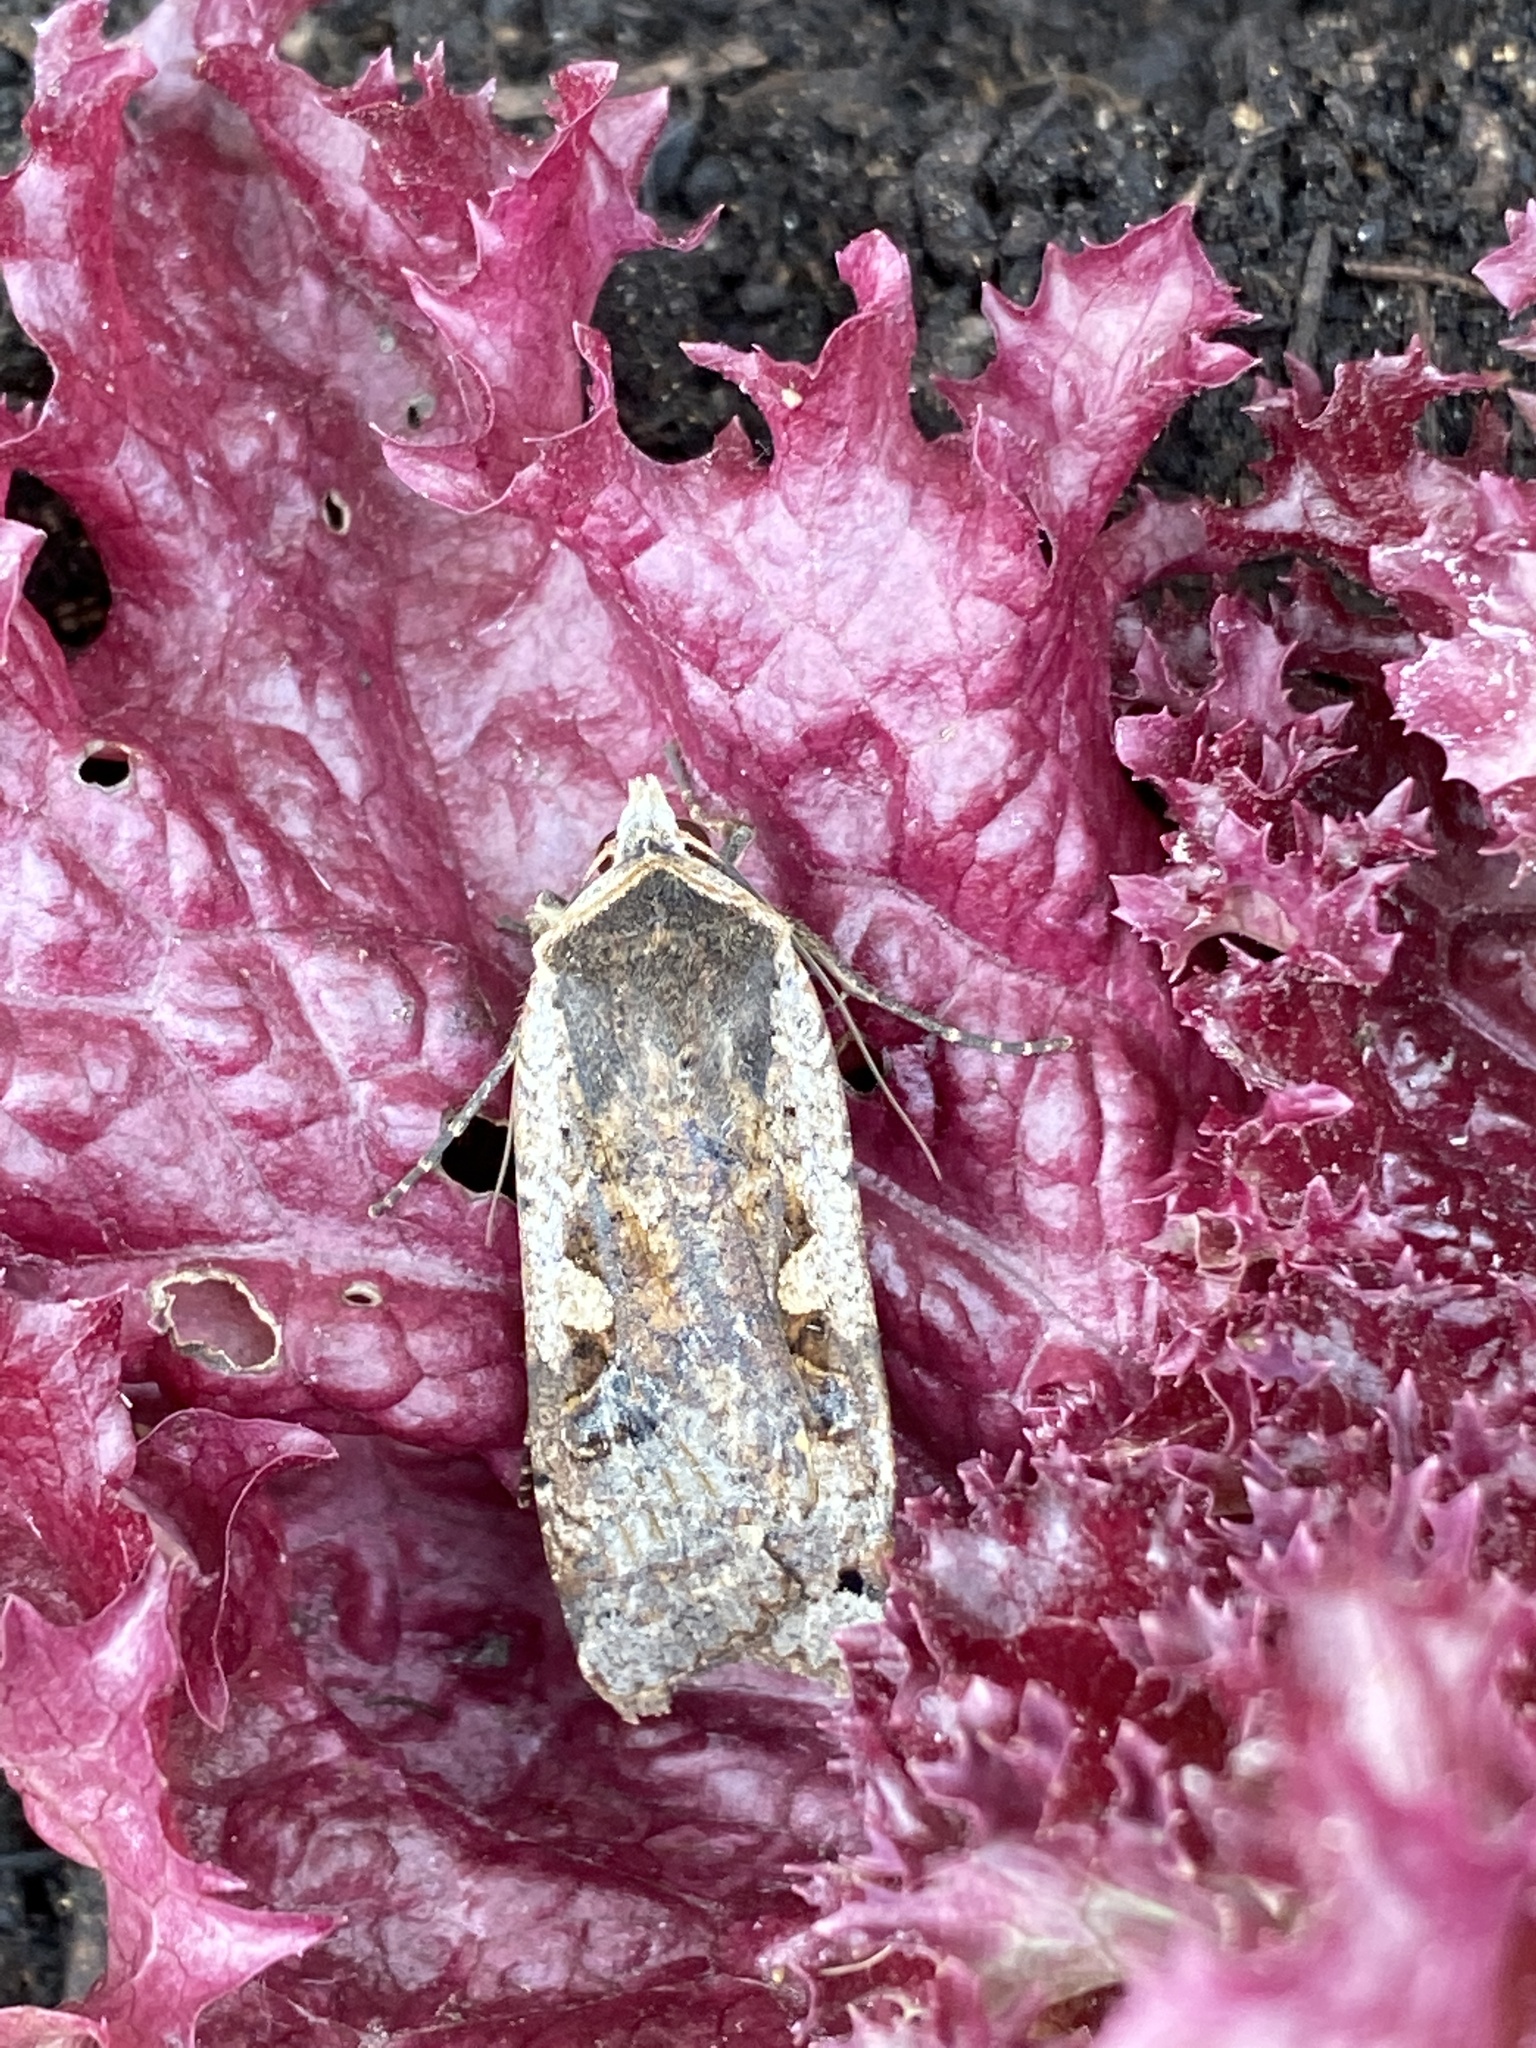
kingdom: Animalia
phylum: Arthropoda
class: Insecta
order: Lepidoptera
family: Noctuidae
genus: Noctua
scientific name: Noctua pronuba
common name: Large yellow underwing
